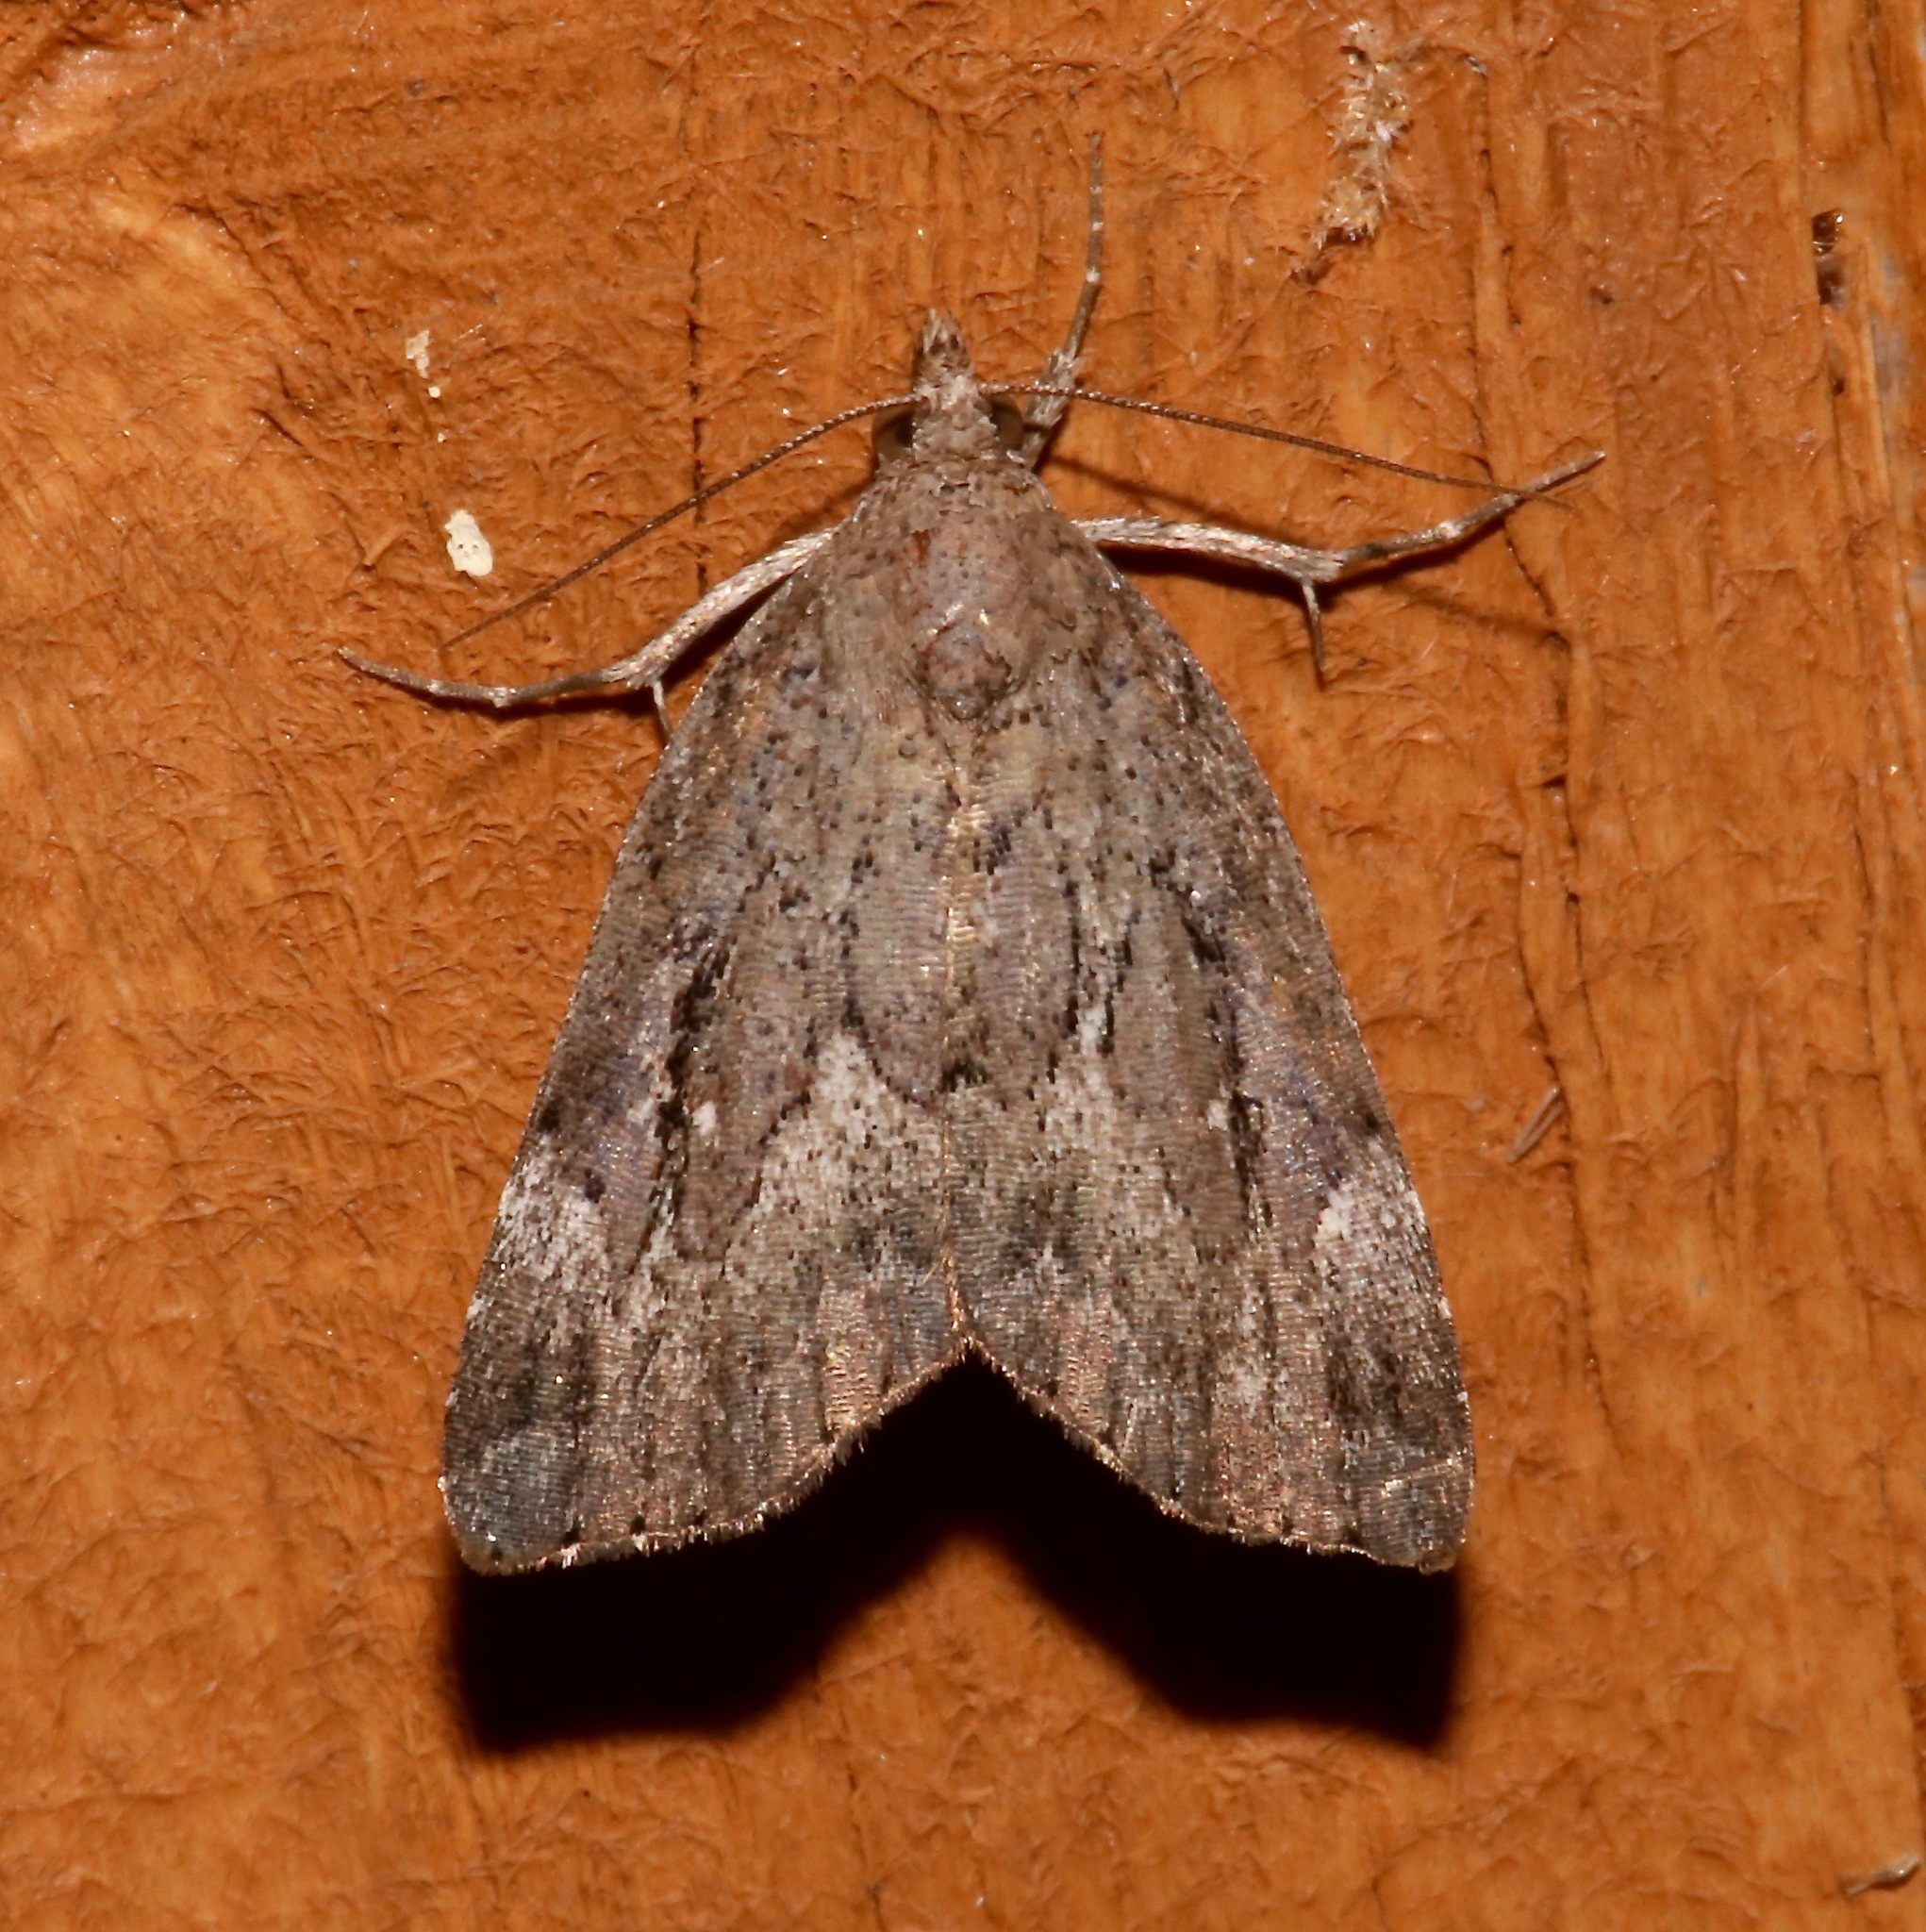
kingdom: Animalia
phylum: Arthropoda
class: Insecta
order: Lepidoptera
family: Erebidae
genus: Cutina
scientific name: Cutina albopunctella
